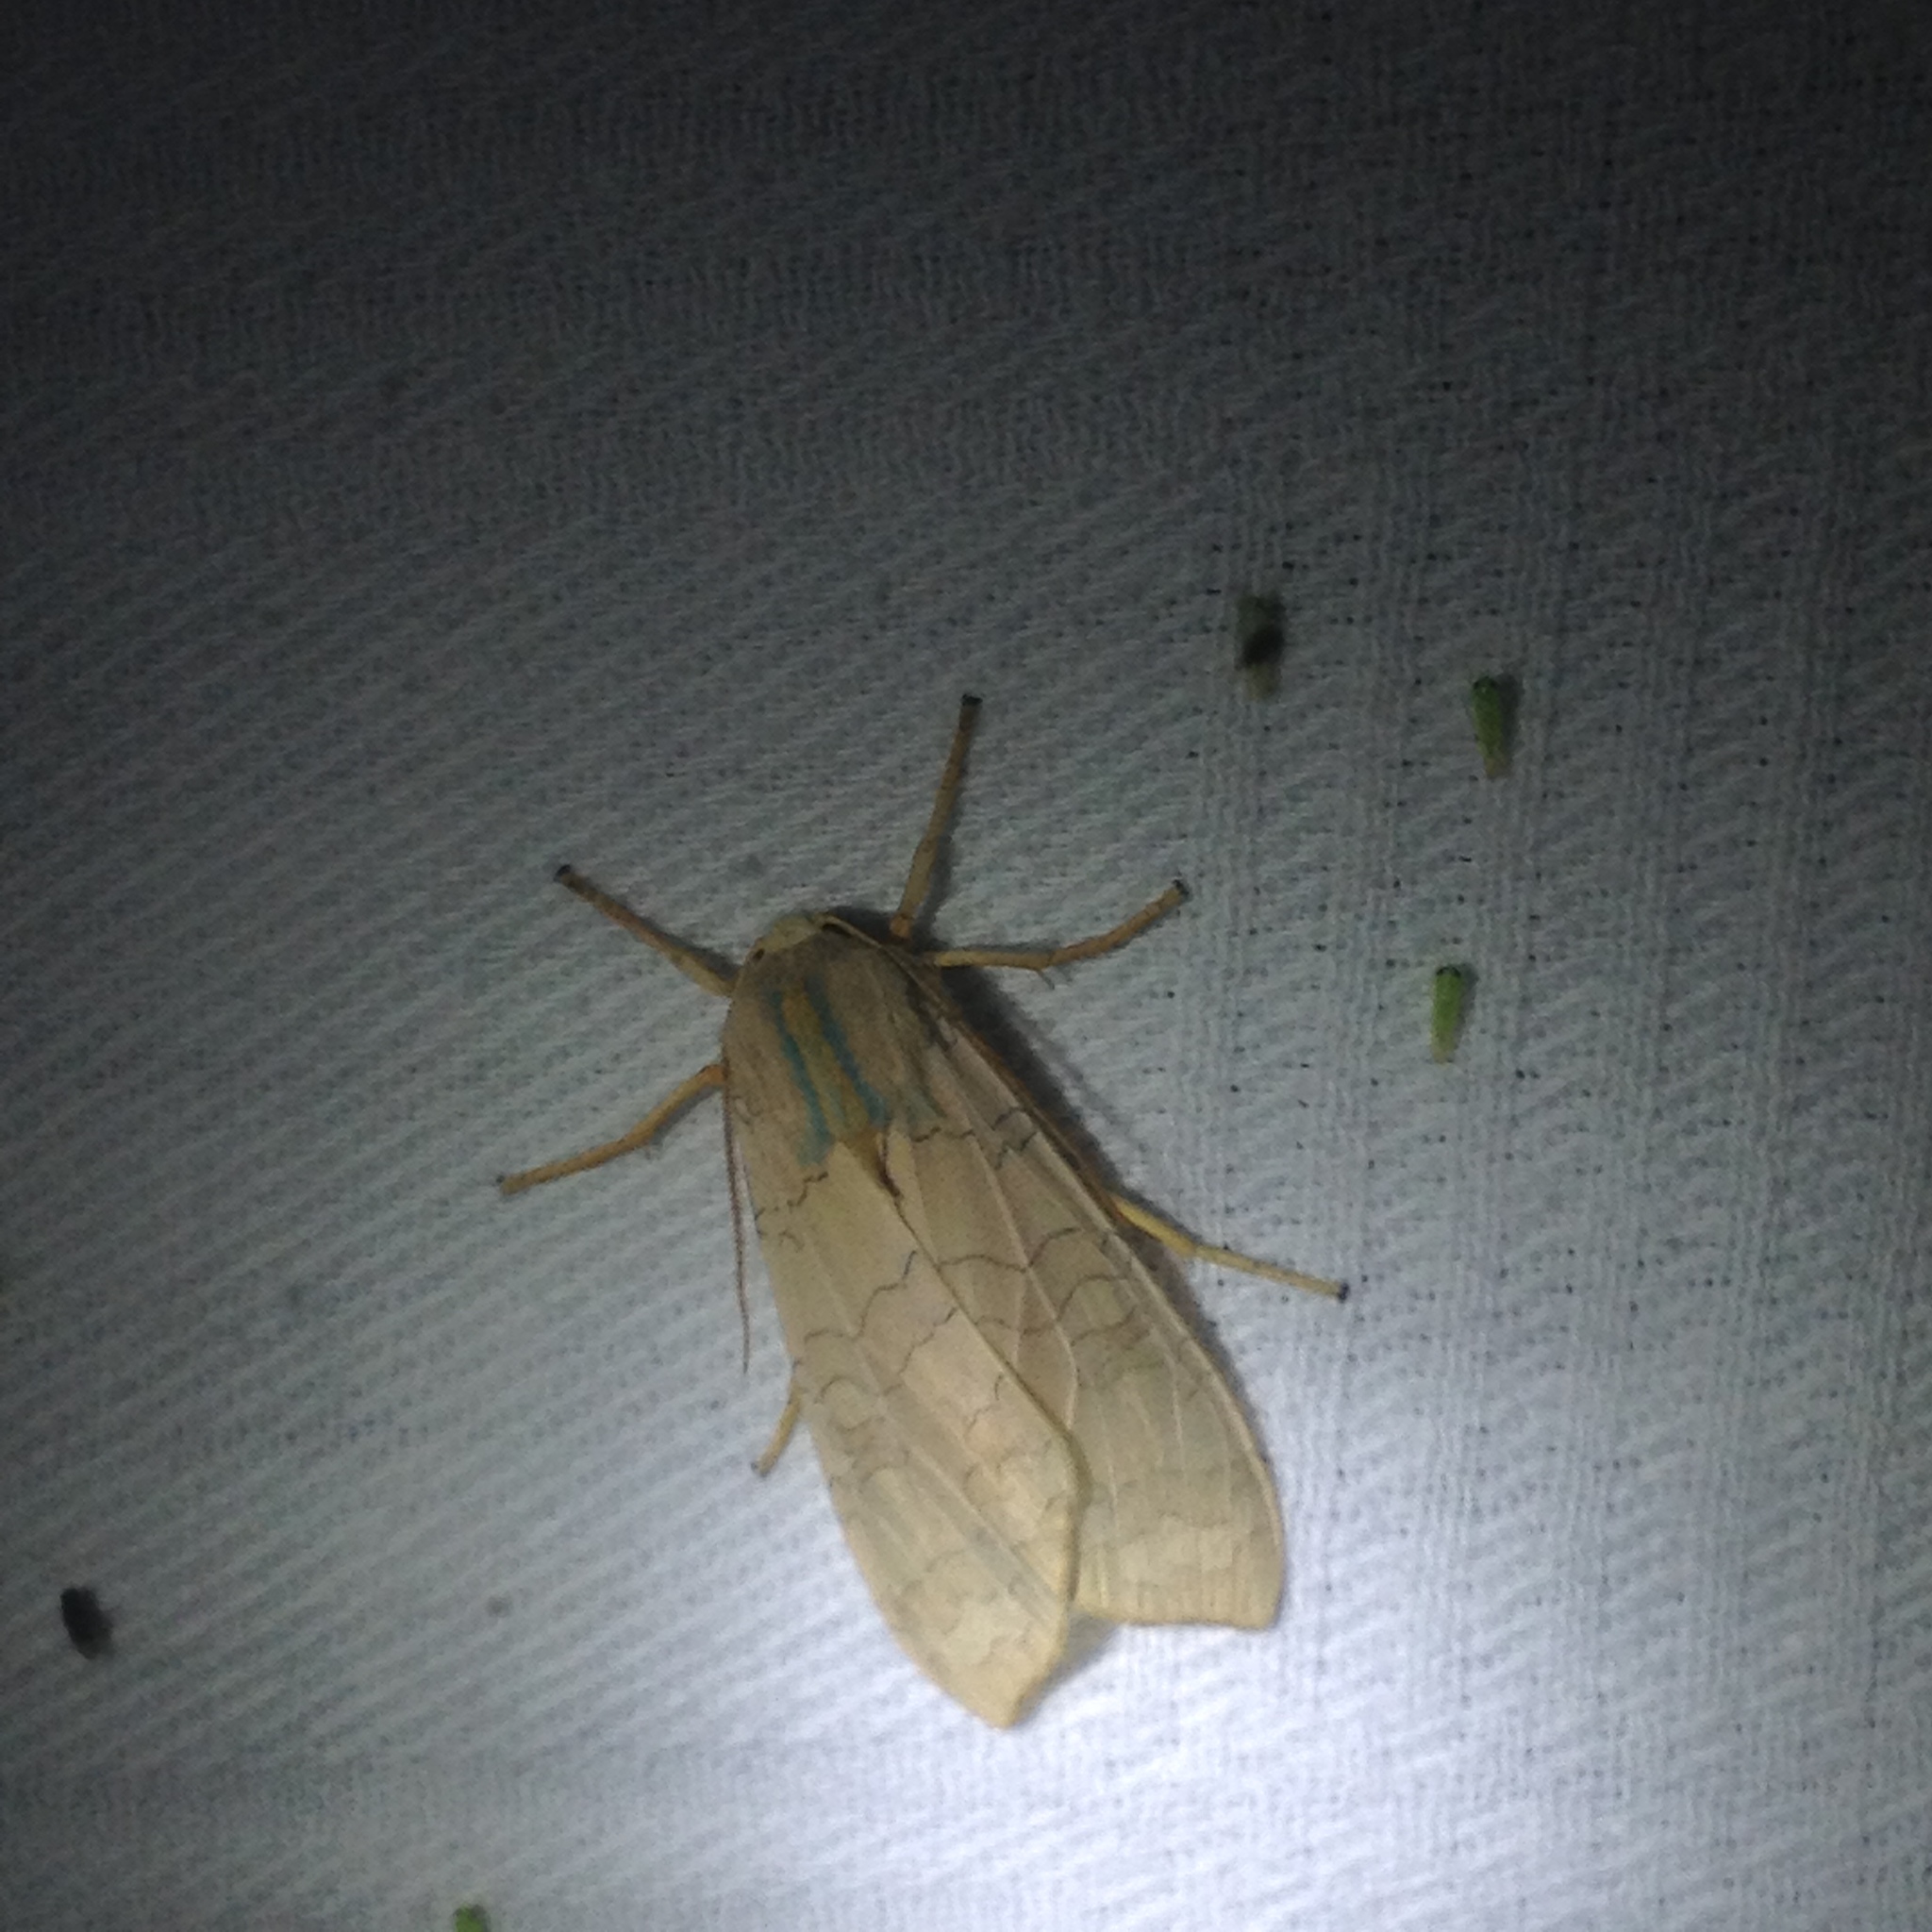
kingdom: Animalia
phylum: Arthropoda
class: Insecta
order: Lepidoptera
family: Erebidae
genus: Halysidota
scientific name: Halysidota
